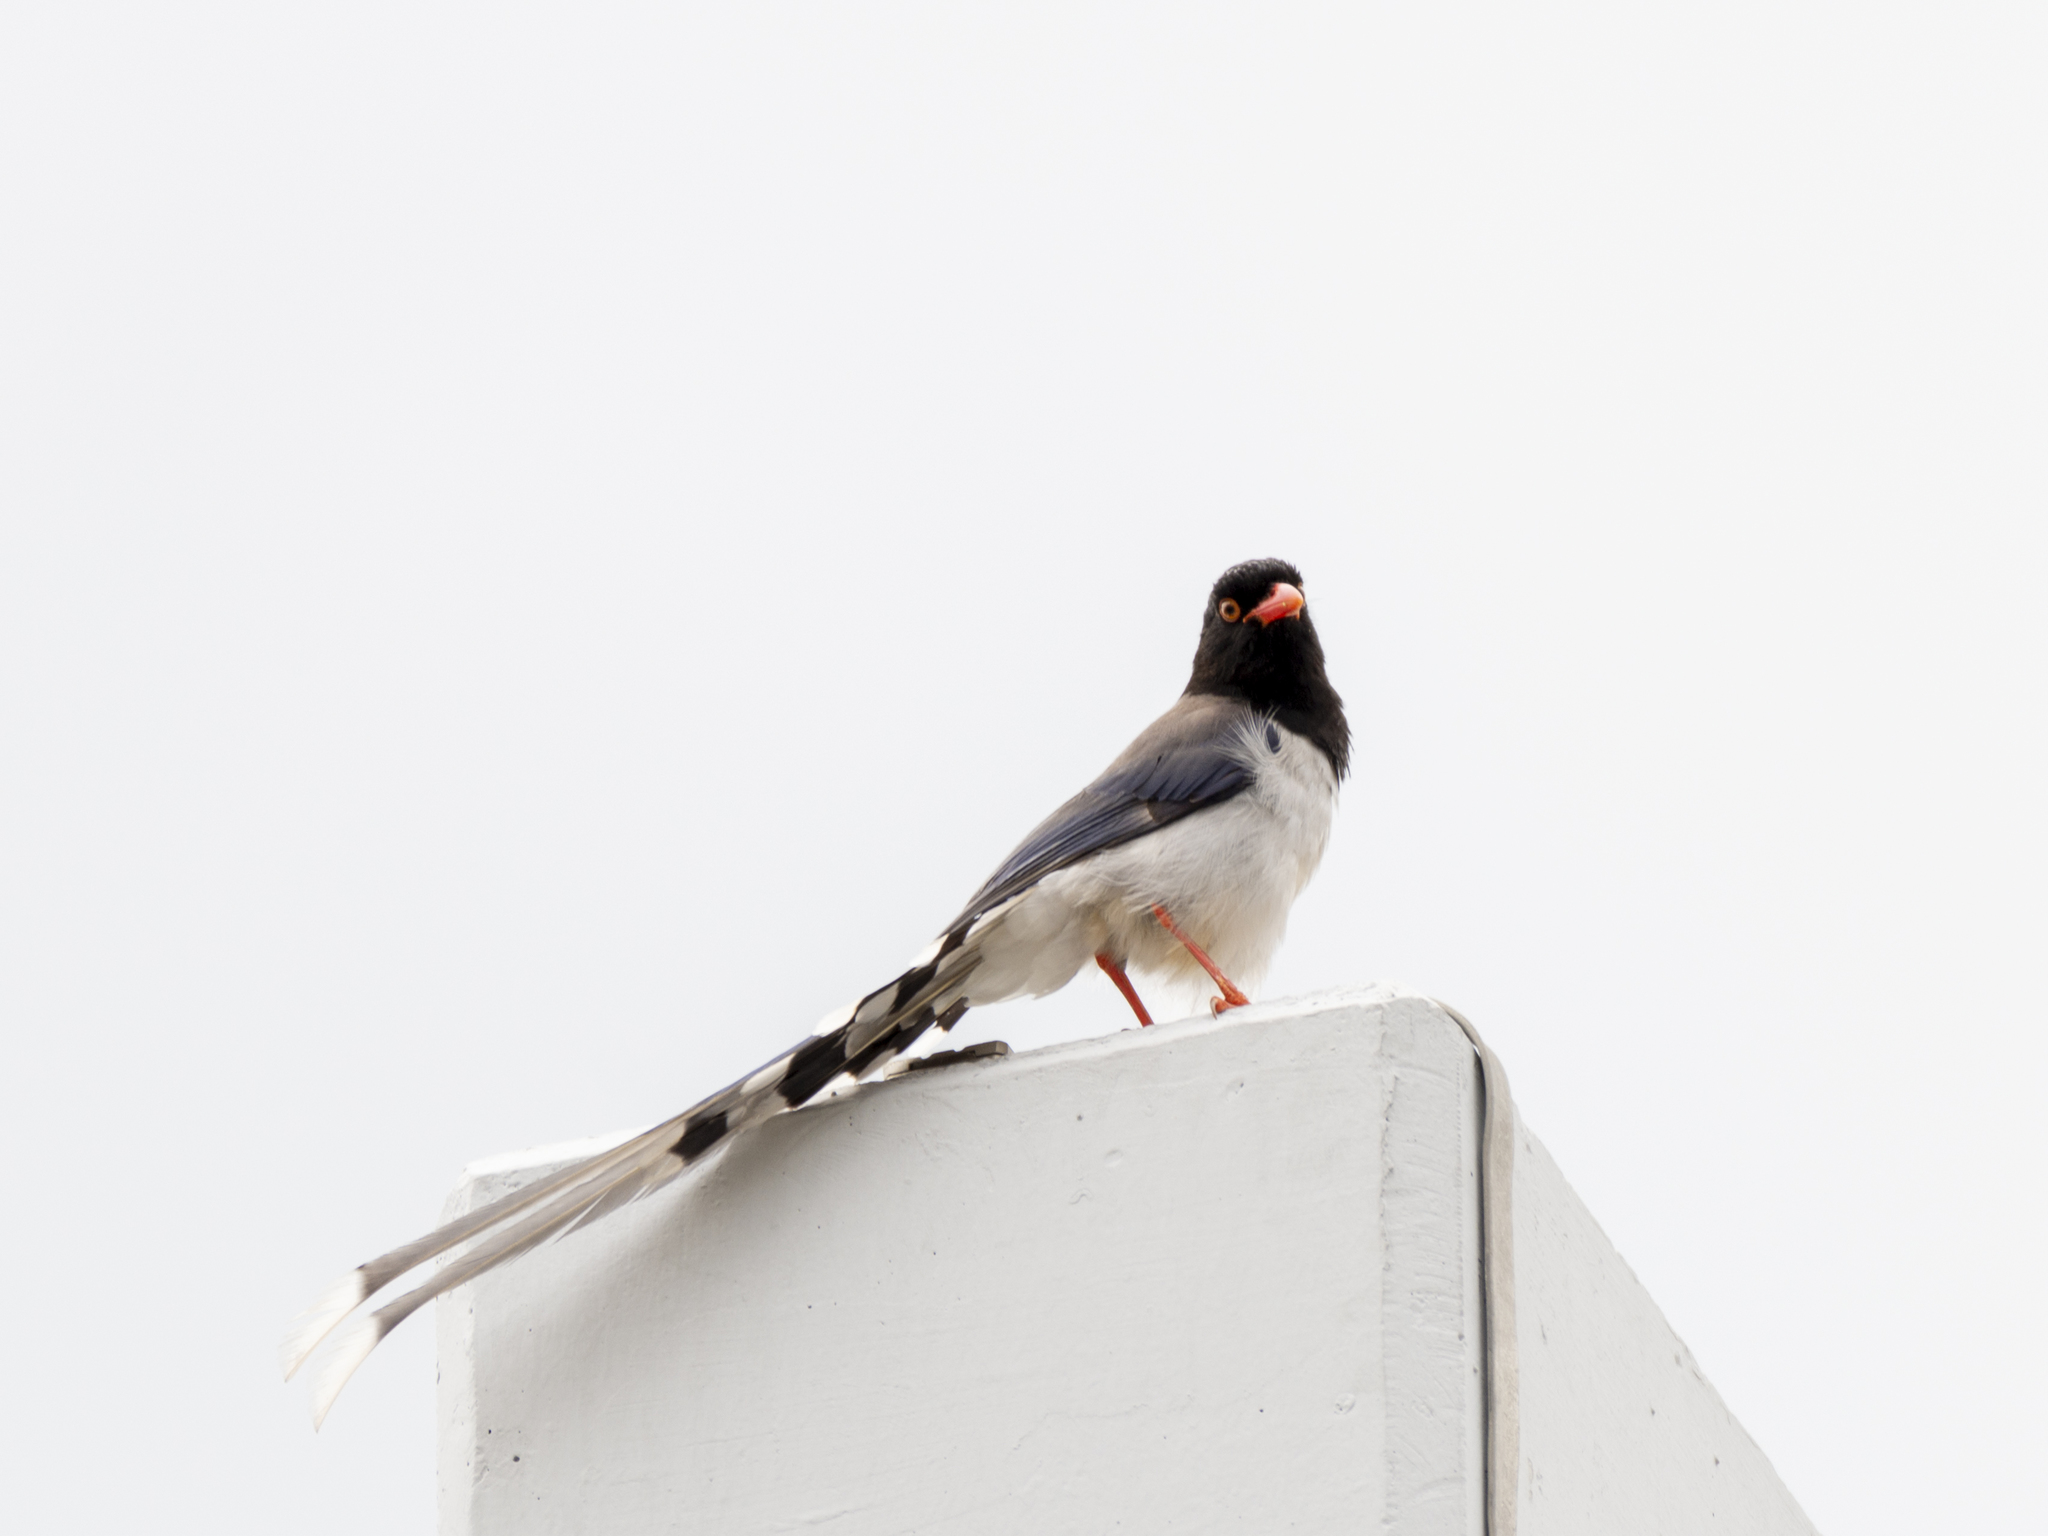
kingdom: Animalia
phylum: Chordata
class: Aves
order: Passeriformes
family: Corvidae
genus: Urocissa
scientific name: Urocissa erythroryncha
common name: Red-billed blue magpie
